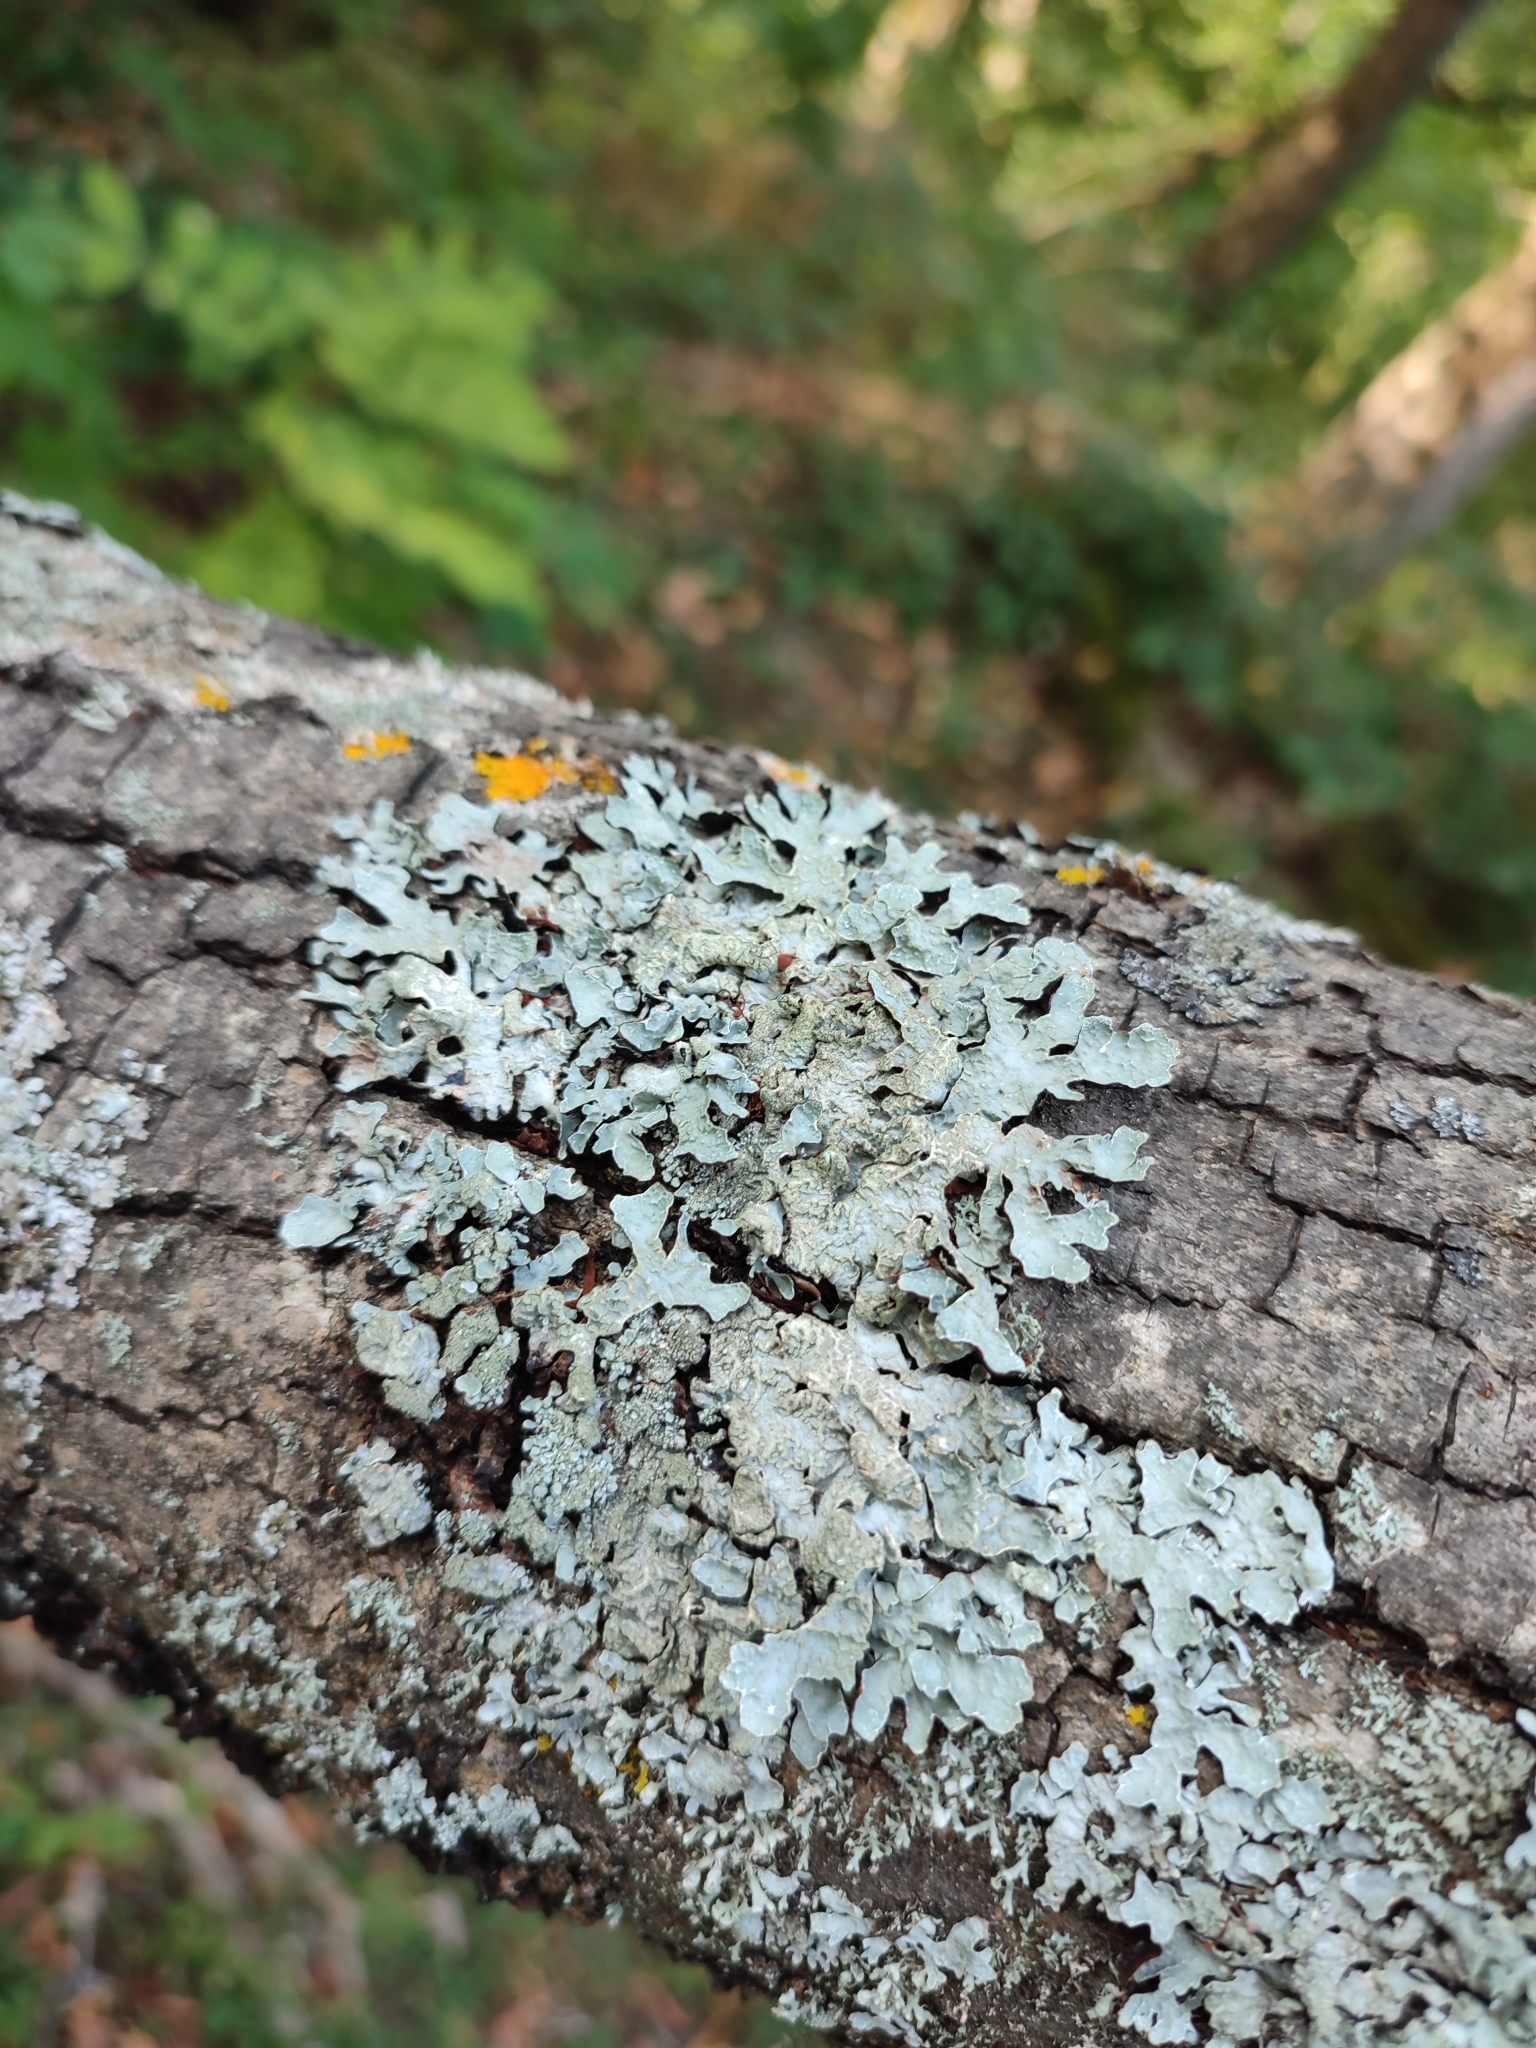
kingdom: Fungi
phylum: Ascomycota
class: Lecanoromycetes
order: Lecanorales
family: Parmeliaceae
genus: Parmelia
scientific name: Parmelia sulcata
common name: Netted shield lichen
